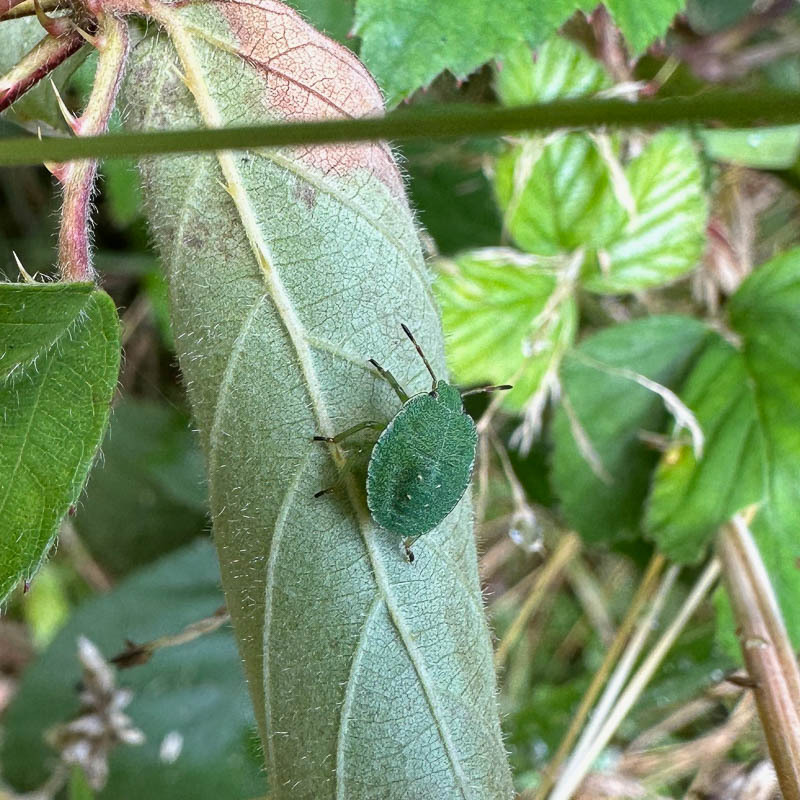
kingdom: Animalia
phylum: Arthropoda
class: Insecta
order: Hemiptera
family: Pentatomidae
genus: Palomena
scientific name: Palomena prasina
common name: Green shieldbug
